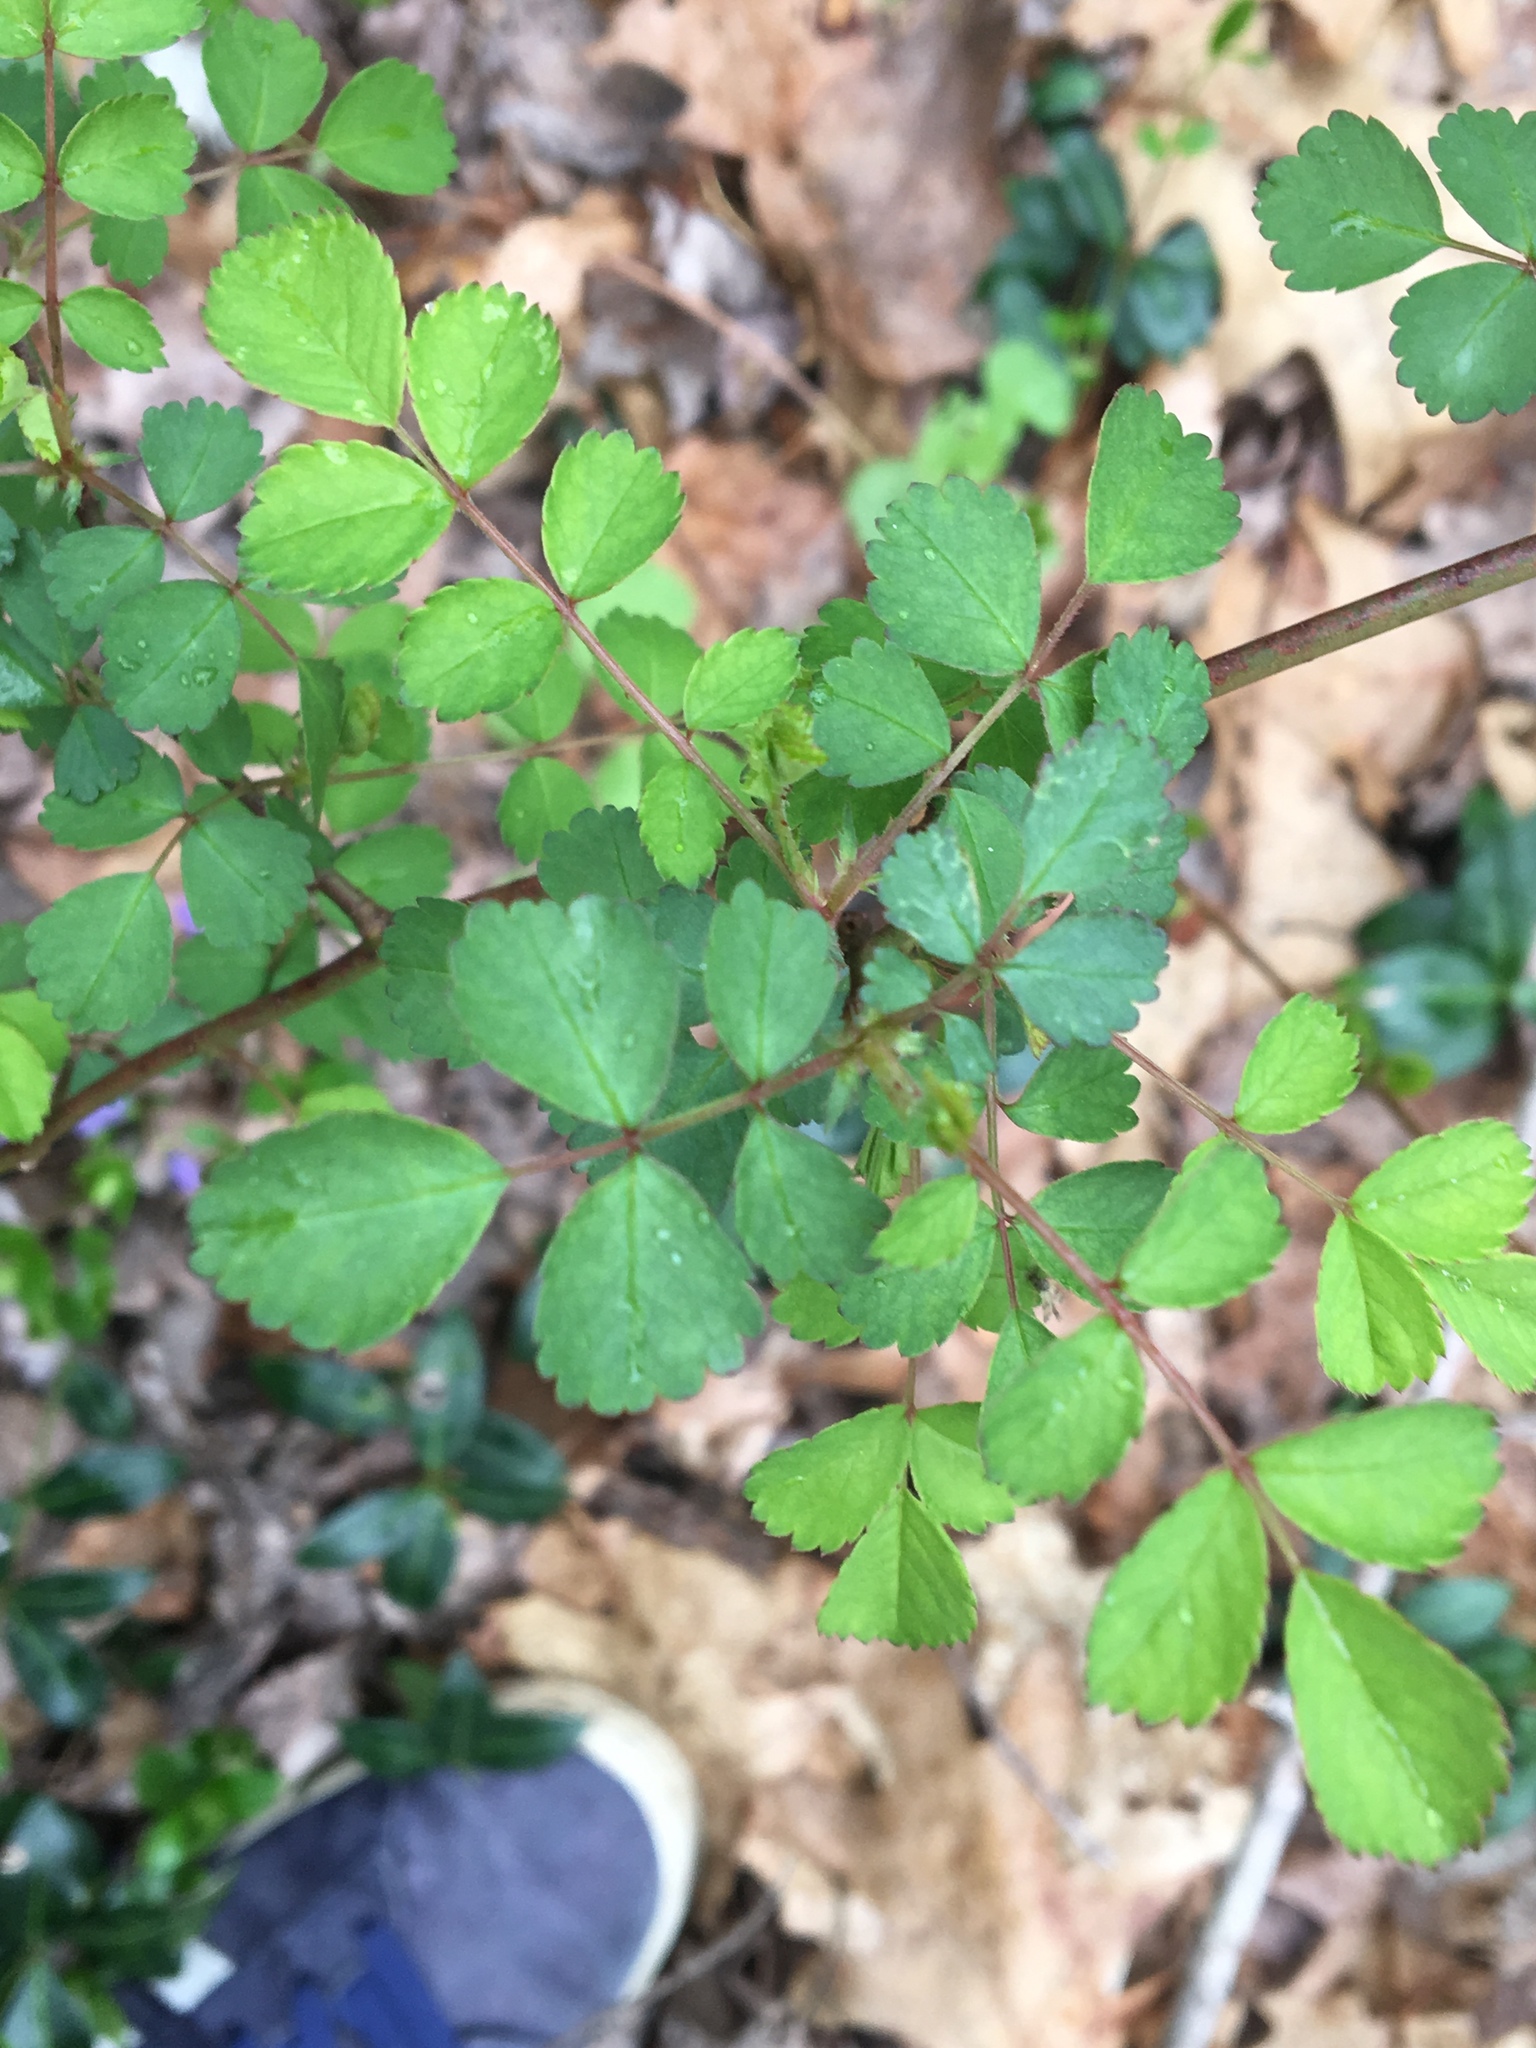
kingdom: Plantae
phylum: Tracheophyta
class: Magnoliopsida
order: Rosales
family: Rosaceae
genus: Rosa
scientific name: Rosa multiflora
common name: Multiflora rose
